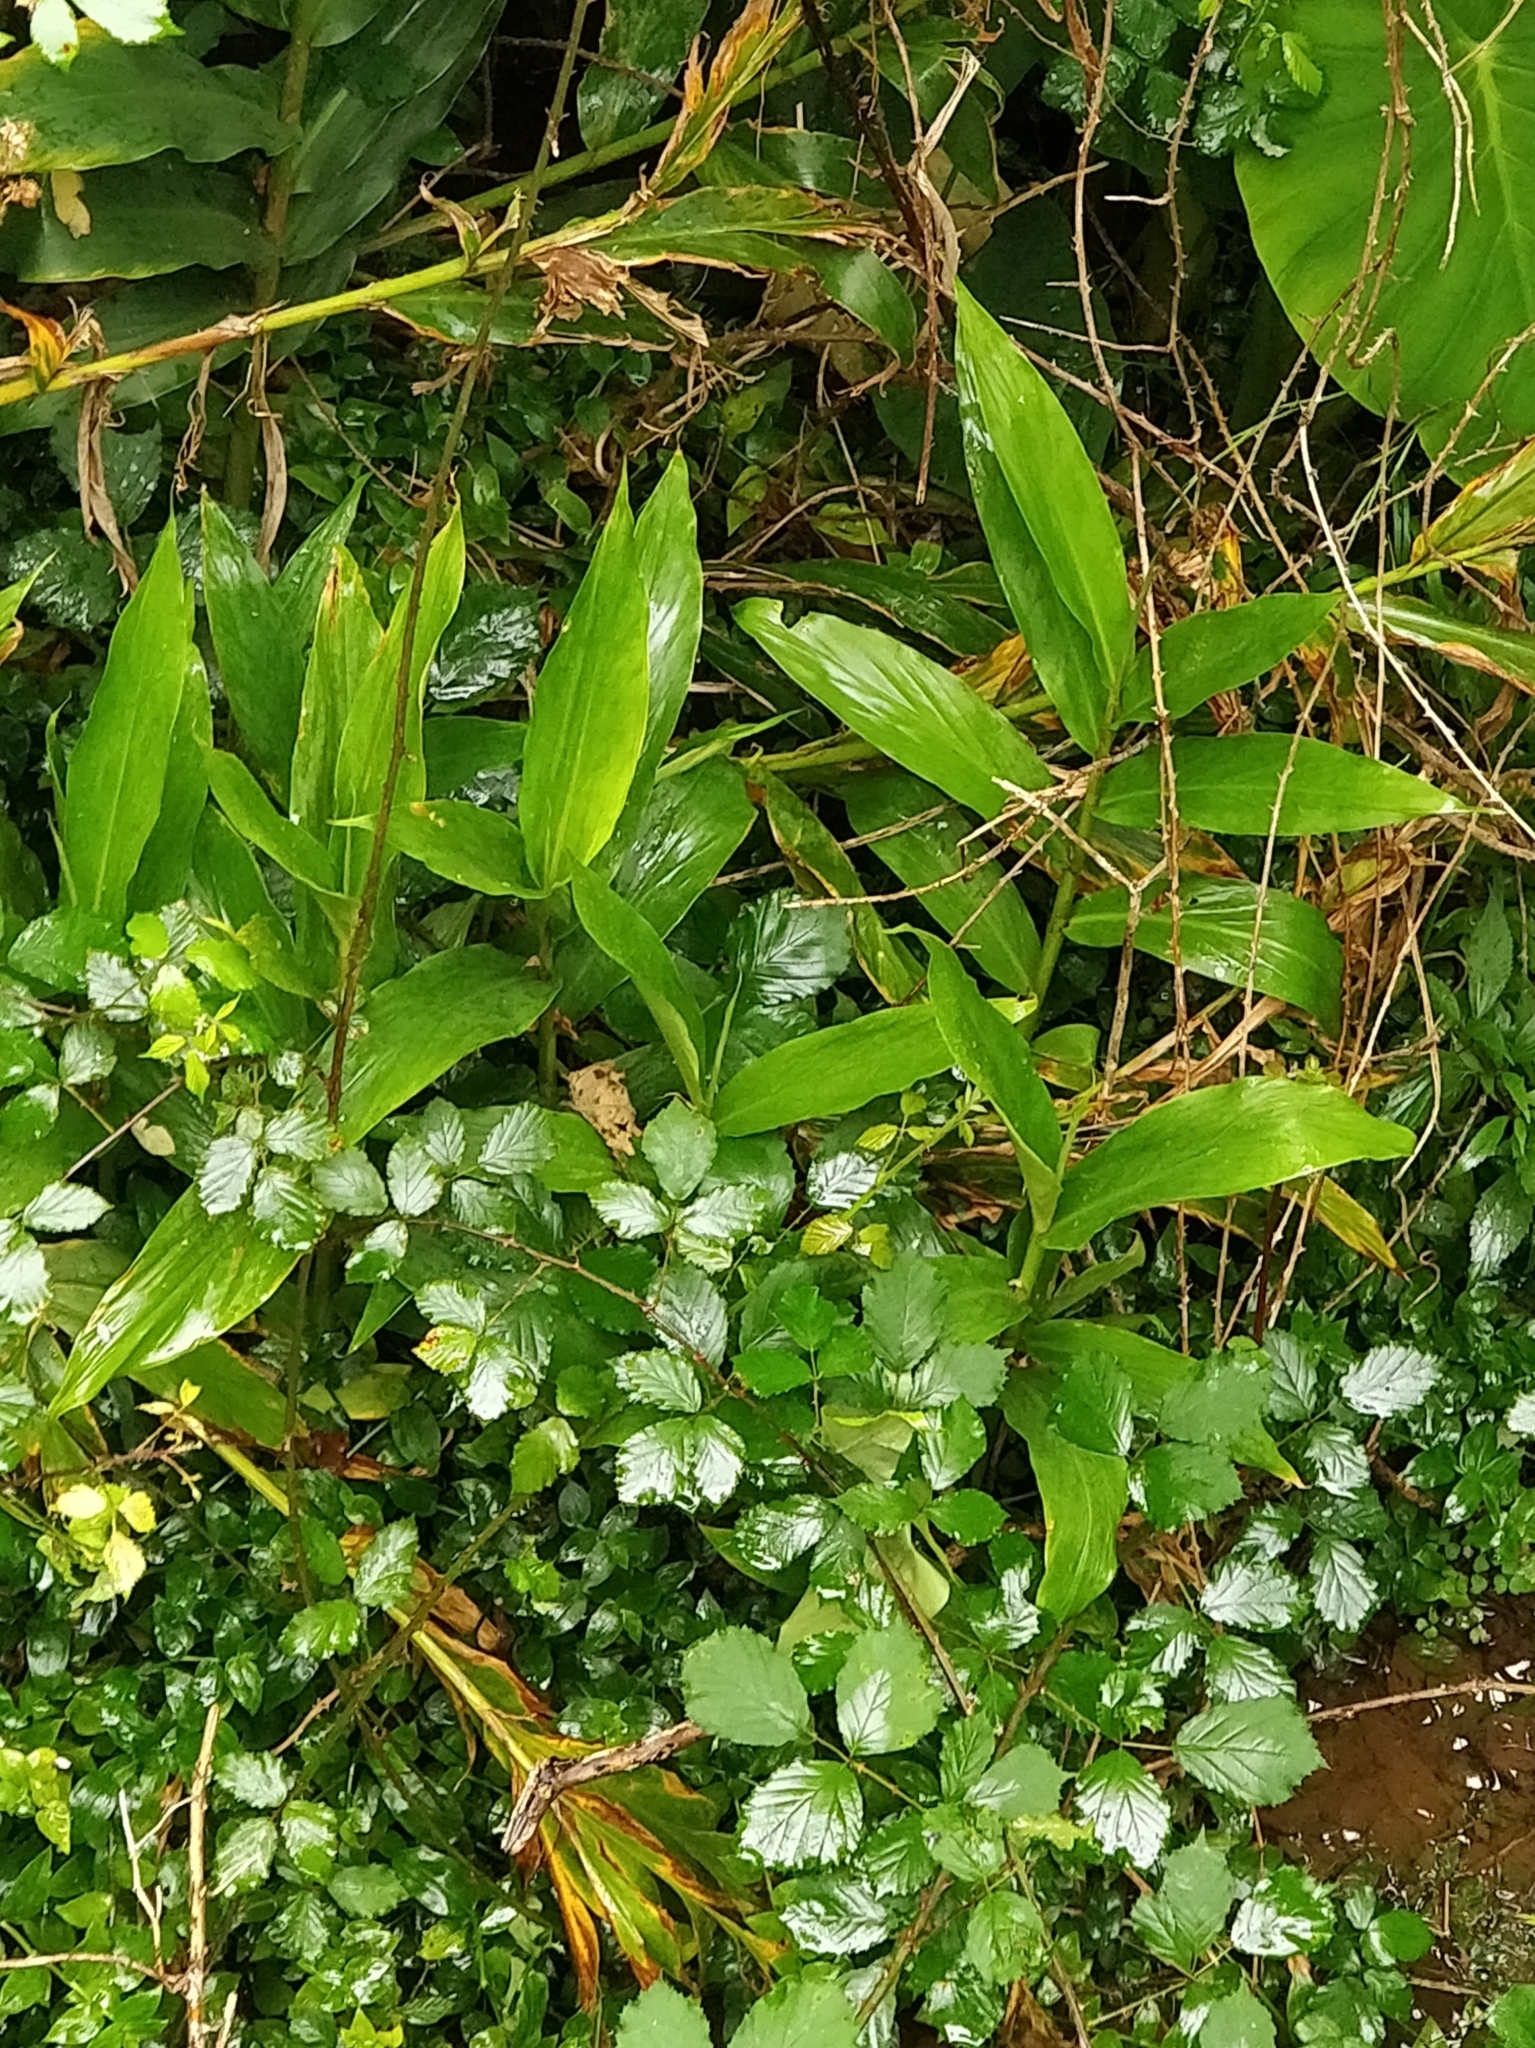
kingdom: Plantae
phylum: Tracheophyta
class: Liliopsida
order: Zingiberales
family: Zingiberaceae
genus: Hedychium
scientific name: Hedychium gardnerianum
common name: Himalayan ginger
